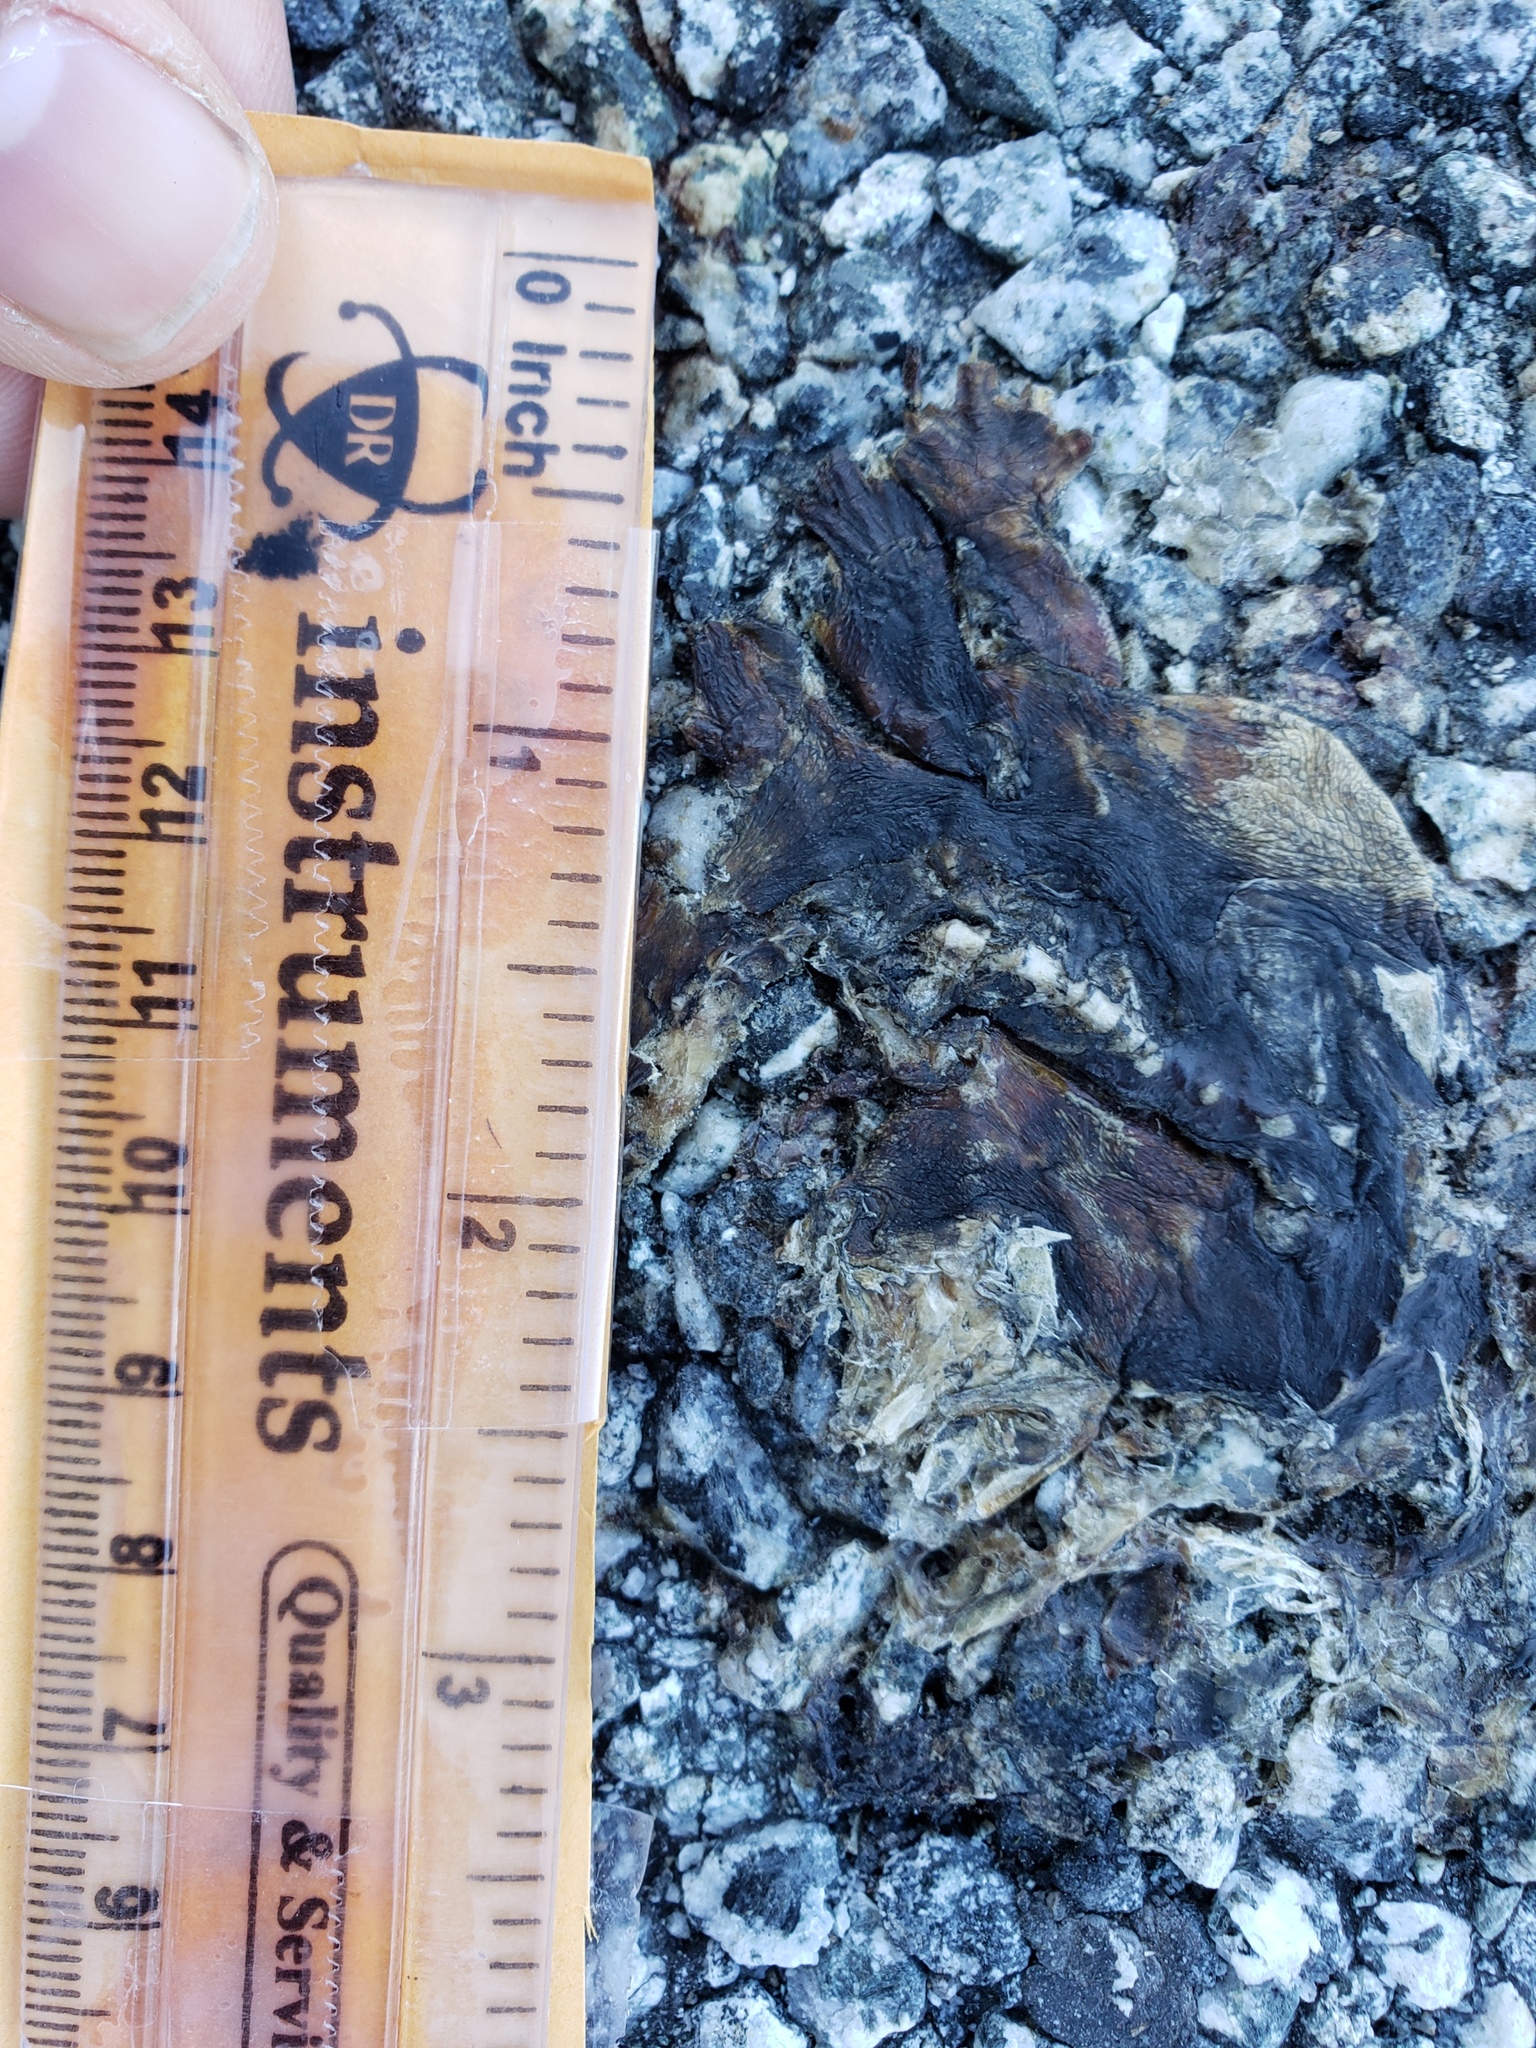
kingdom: Animalia
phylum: Chordata
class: Amphibia
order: Caudata
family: Salamandridae
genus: Taricha
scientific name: Taricha
